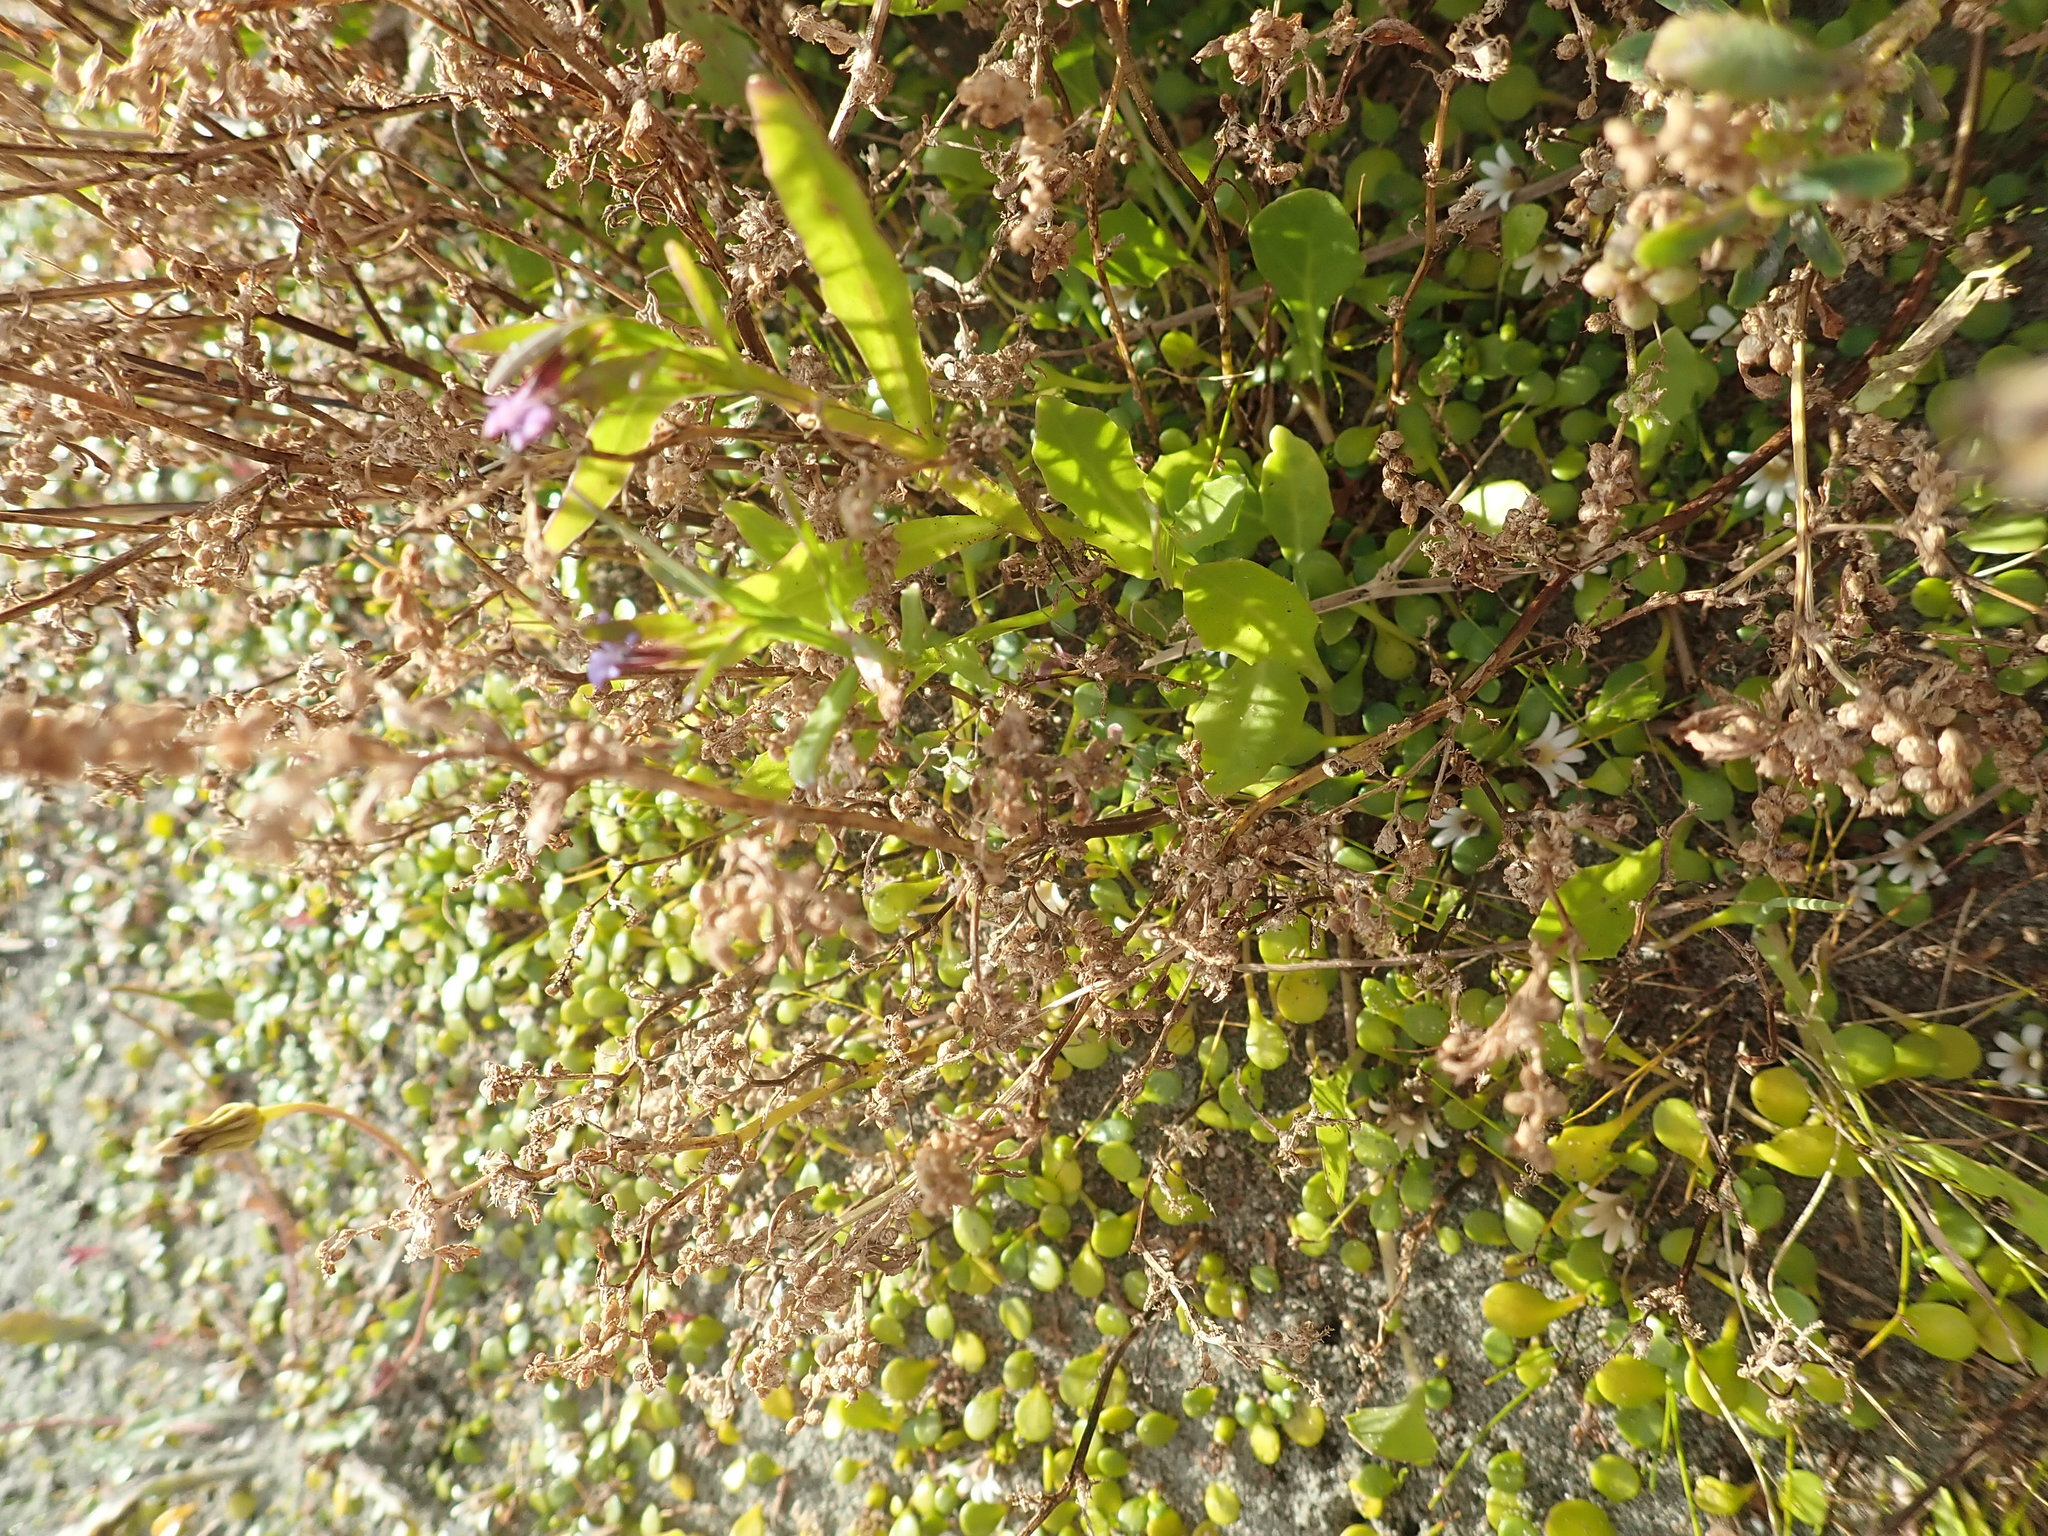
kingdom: Plantae
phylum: Tracheophyta
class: Magnoliopsida
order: Asterales
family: Campanulaceae
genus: Lobelia
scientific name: Lobelia anceps
